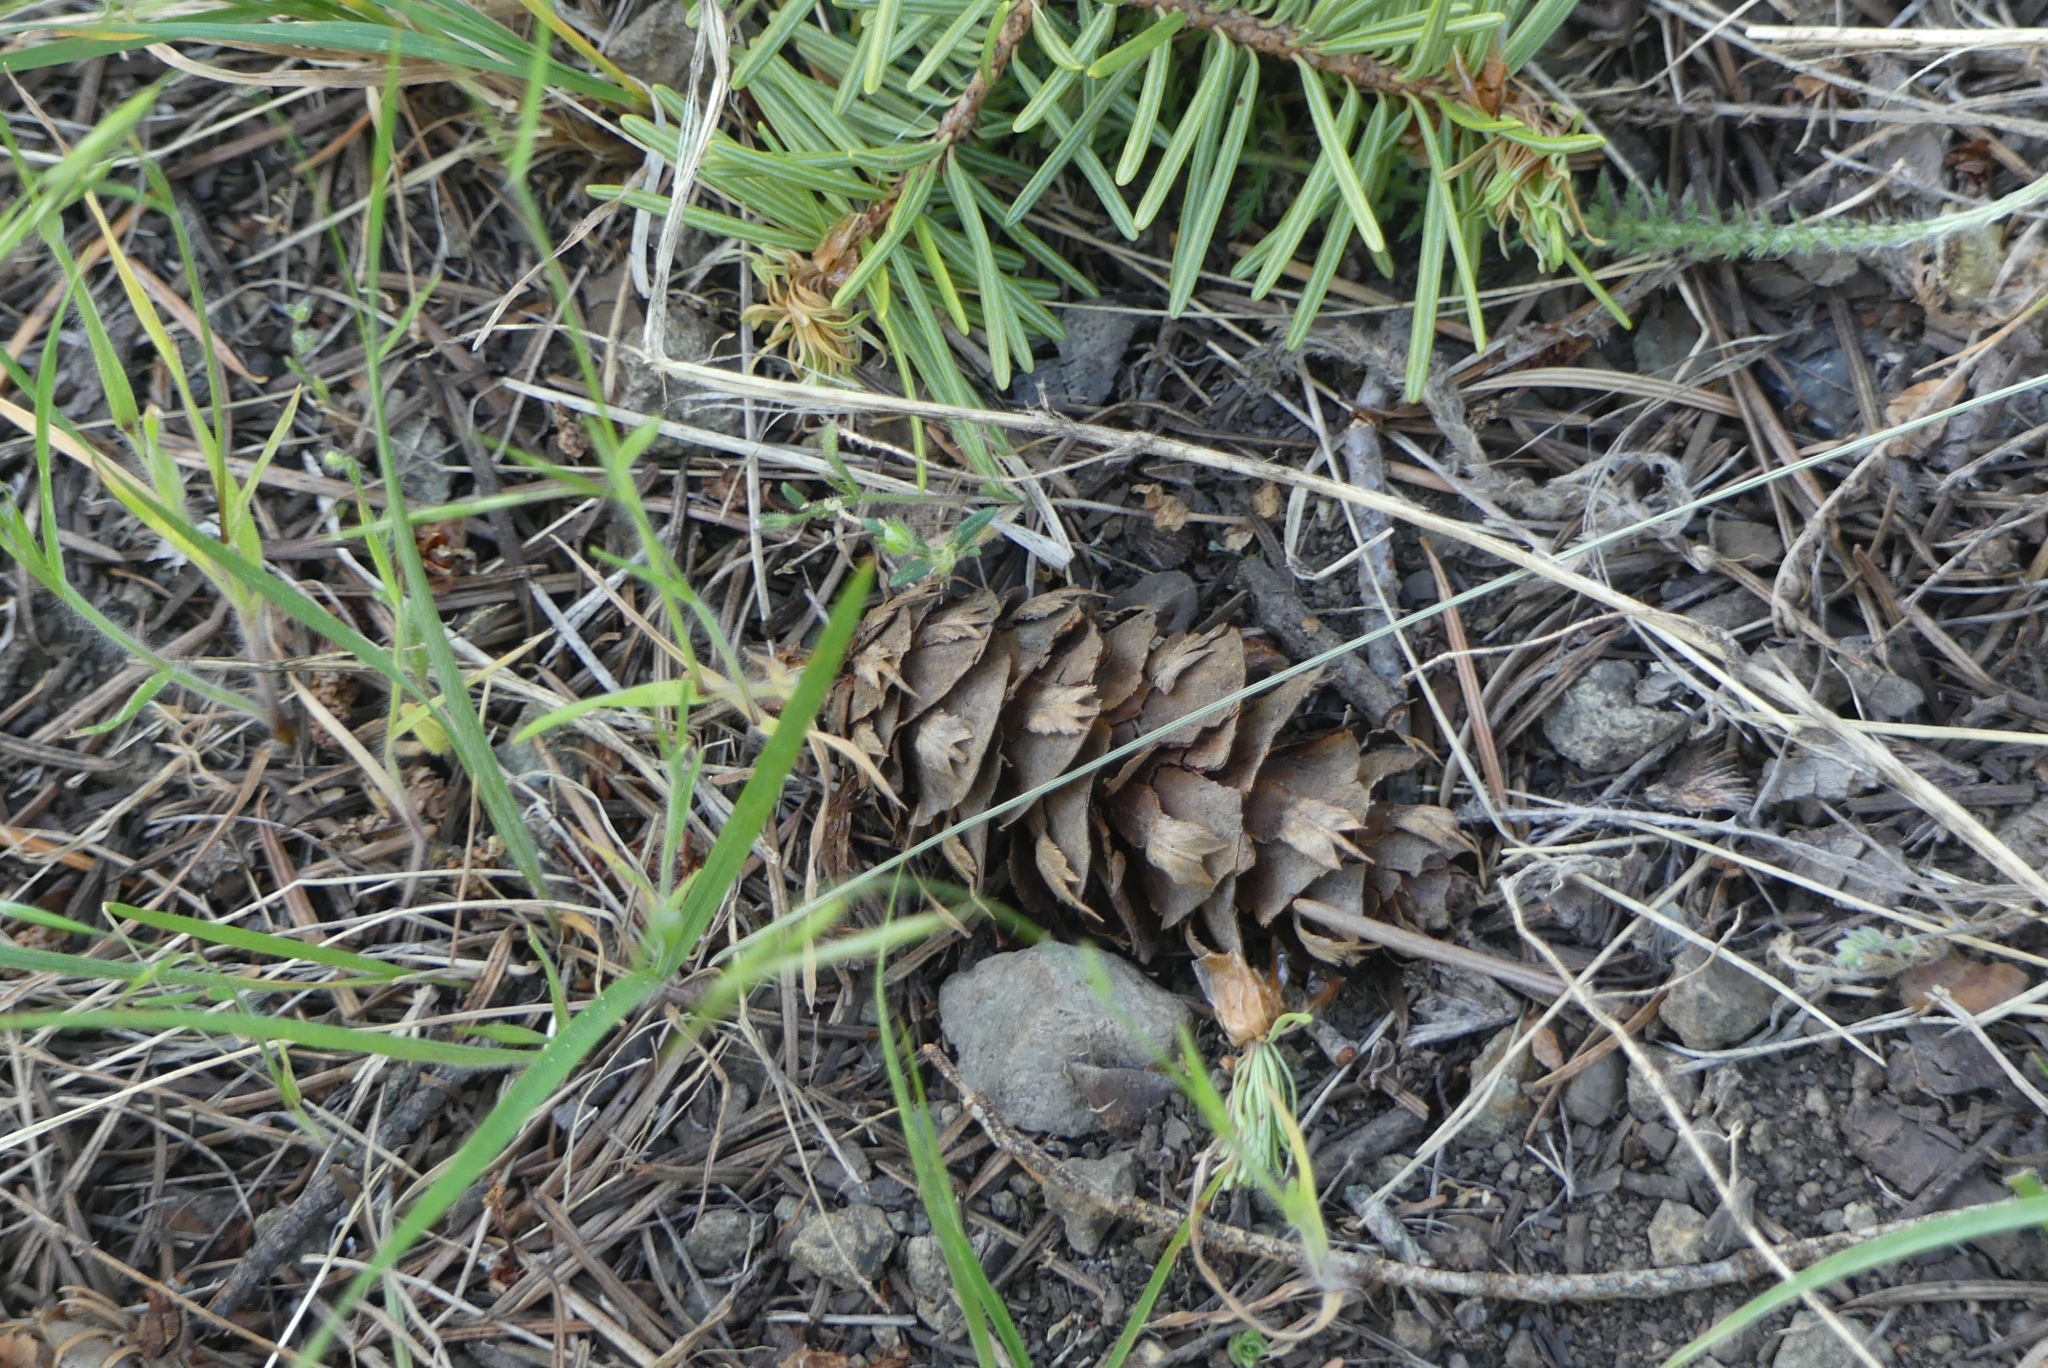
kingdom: Plantae
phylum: Tracheophyta
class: Pinopsida
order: Pinales
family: Pinaceae
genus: Pseudotsuga
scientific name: Pseudotsuga menziesii
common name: Douglas fir
